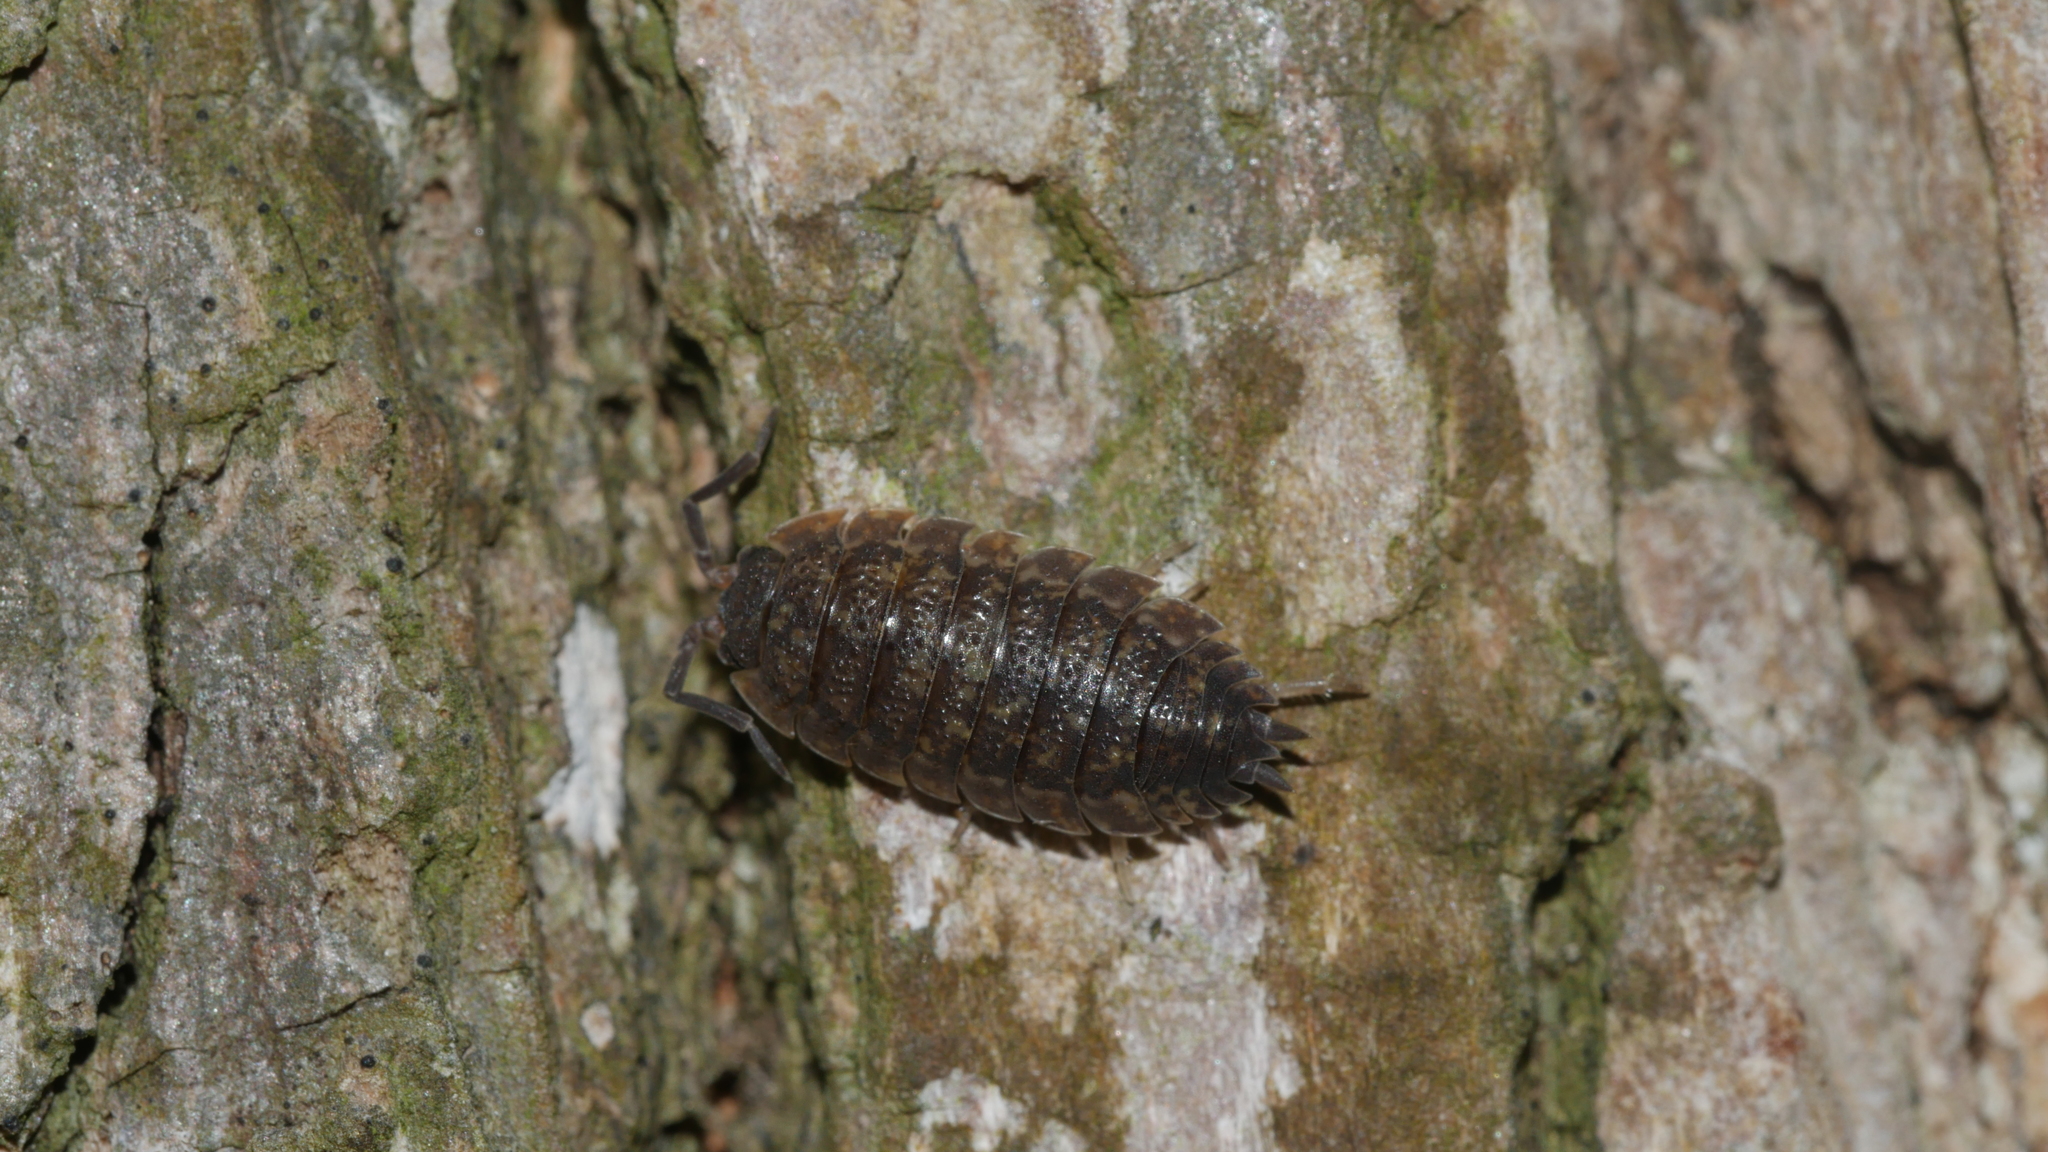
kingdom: Animalia
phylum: Arthropoda
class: Malacostraca
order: Isopoda
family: Porcellionidae
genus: Porcellio
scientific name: Porcellio scaber
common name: Common rough woodlouse
